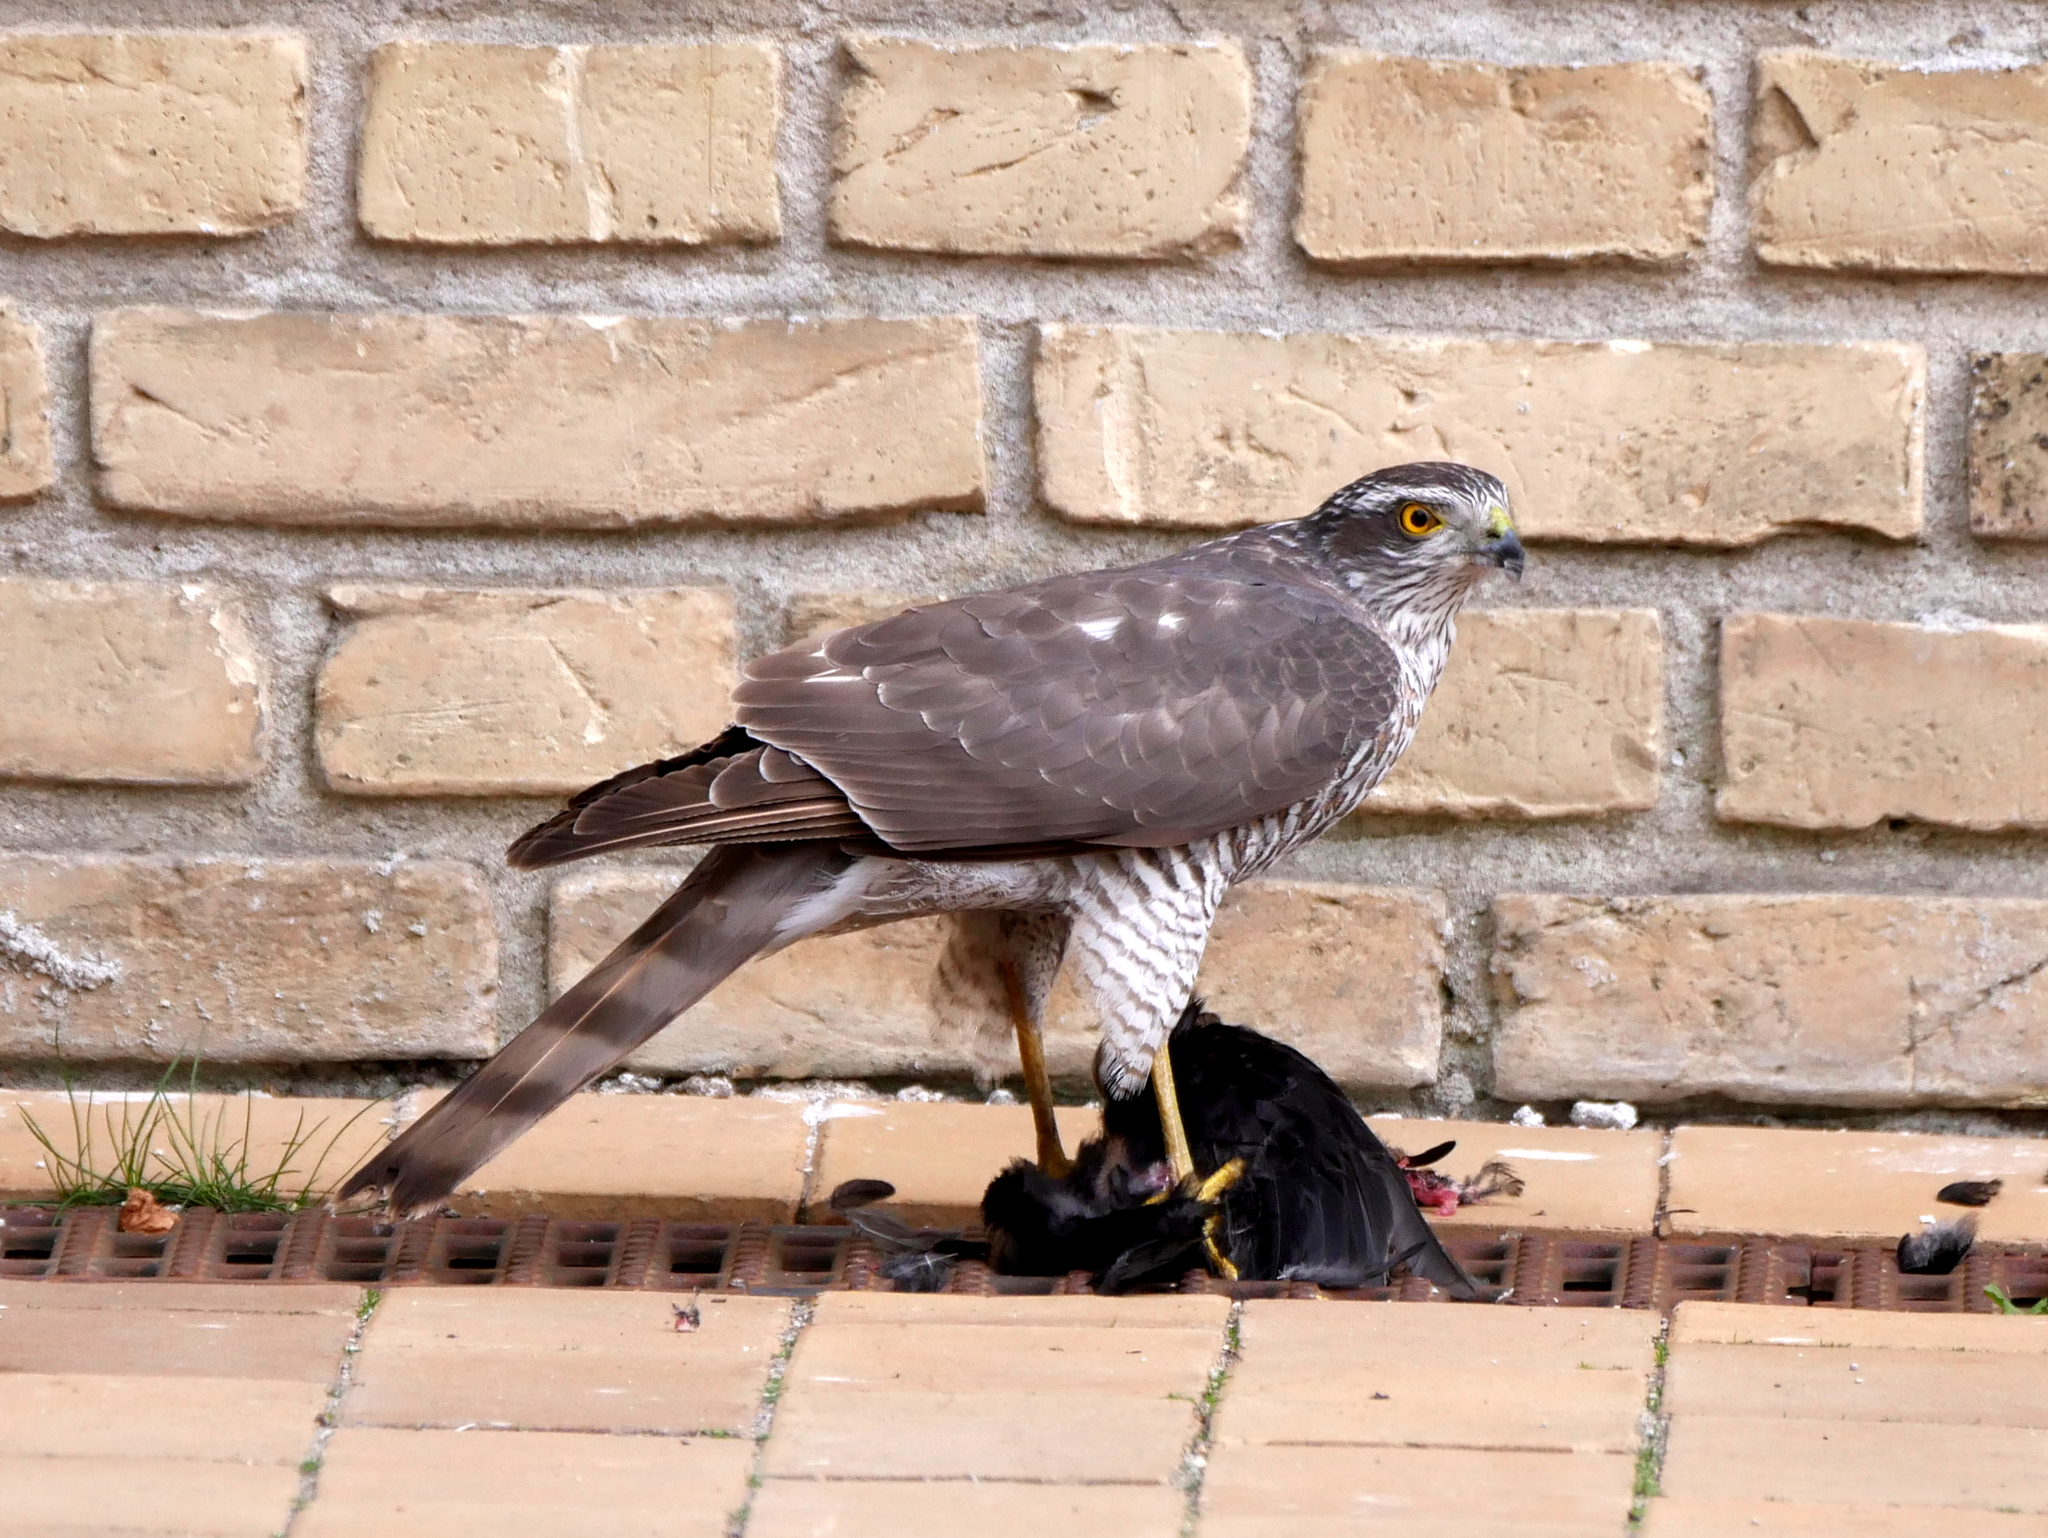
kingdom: Animalia
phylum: Chordata
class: Aves
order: Accipitriformes
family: Accipitridae
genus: Accipiter
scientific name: Accipiter nisus
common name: Eurasian sparrowhawk
